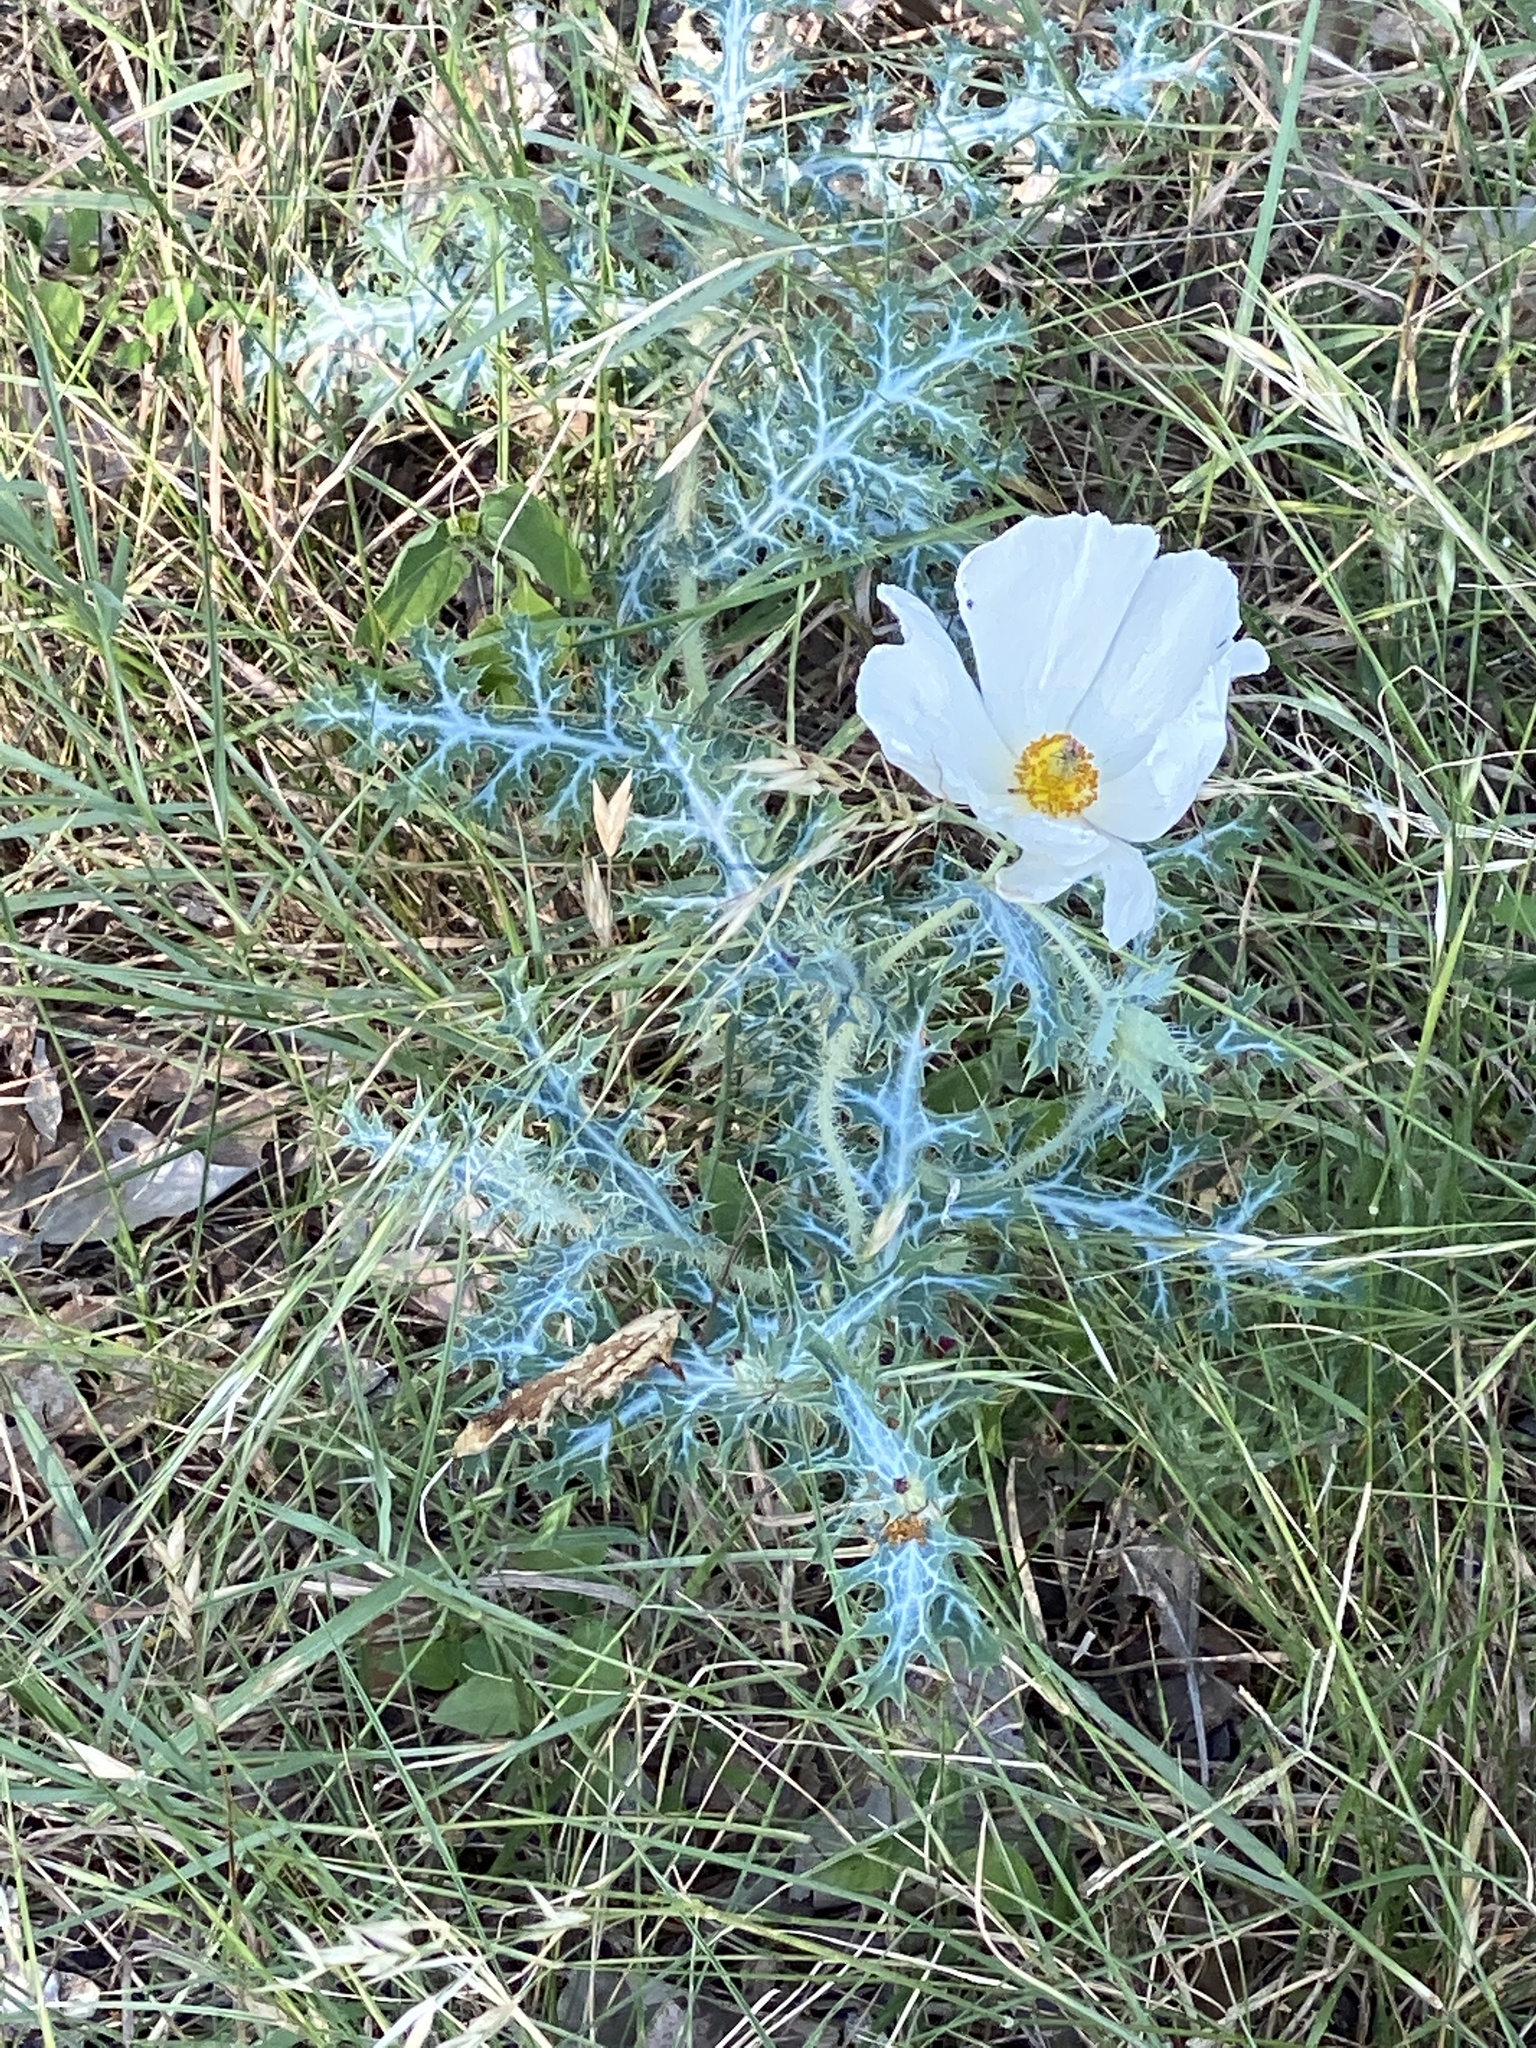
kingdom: Plantae
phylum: Tracheophyta
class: Magnoliopsida
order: Ranunculales
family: Papaveraceae
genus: Argemone
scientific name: Argemone albiflora
